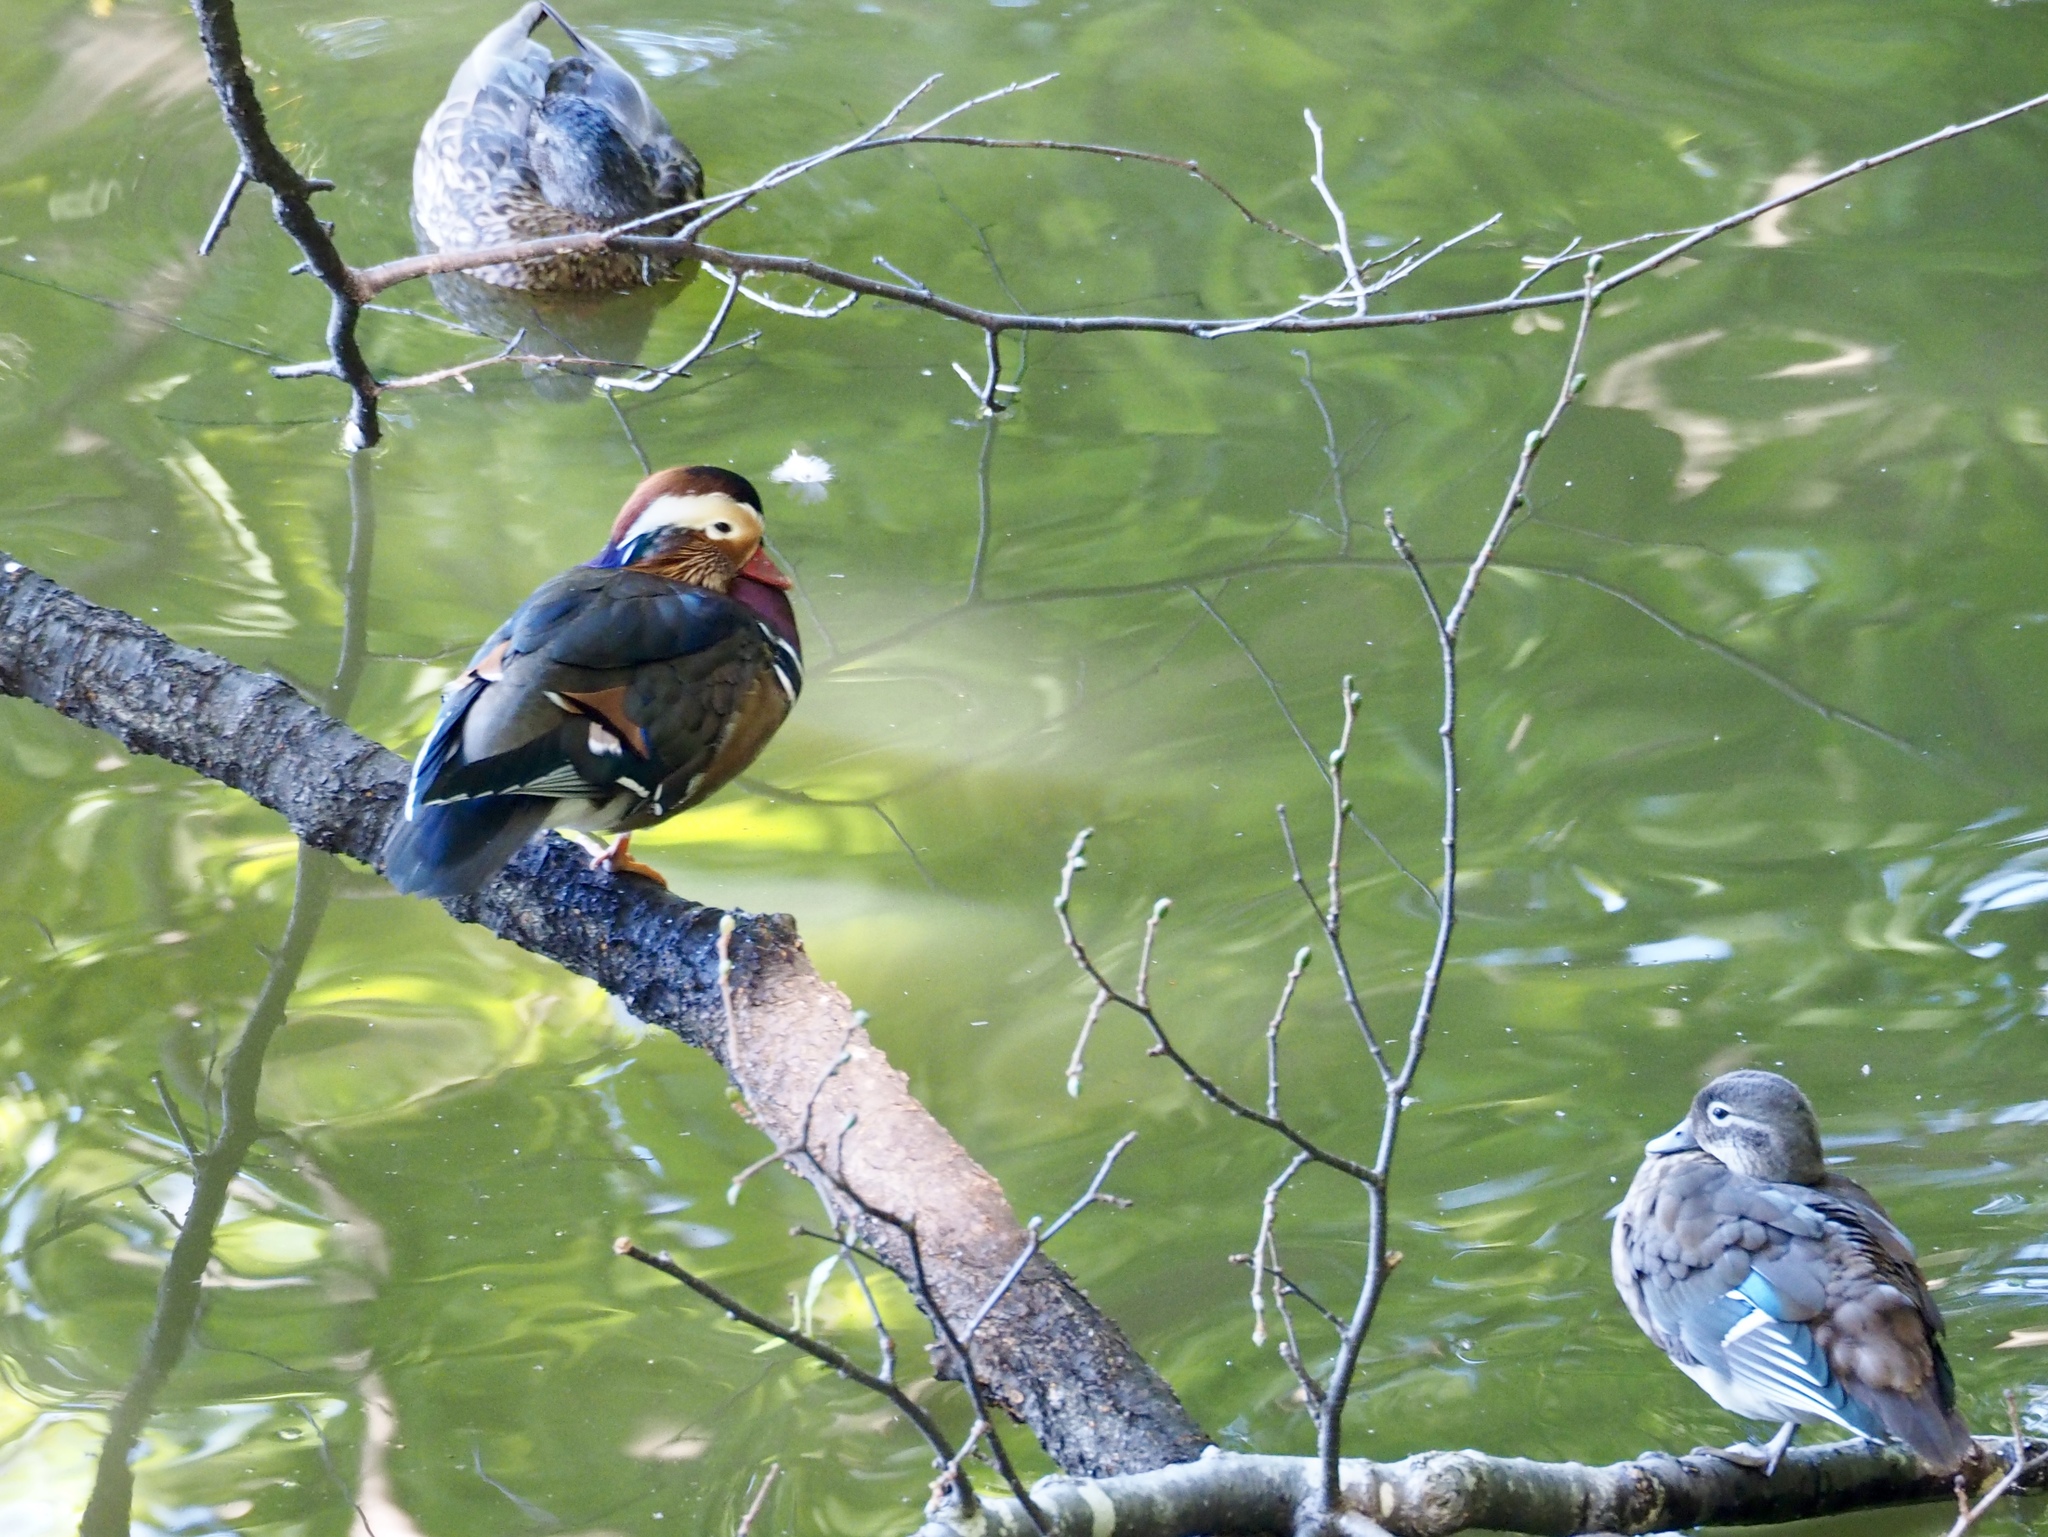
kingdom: Animalia
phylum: Chordata
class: Aves
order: Anseriformes
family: Anatidae
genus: Aix
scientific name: Aix galericulata
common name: Mandarin duck
